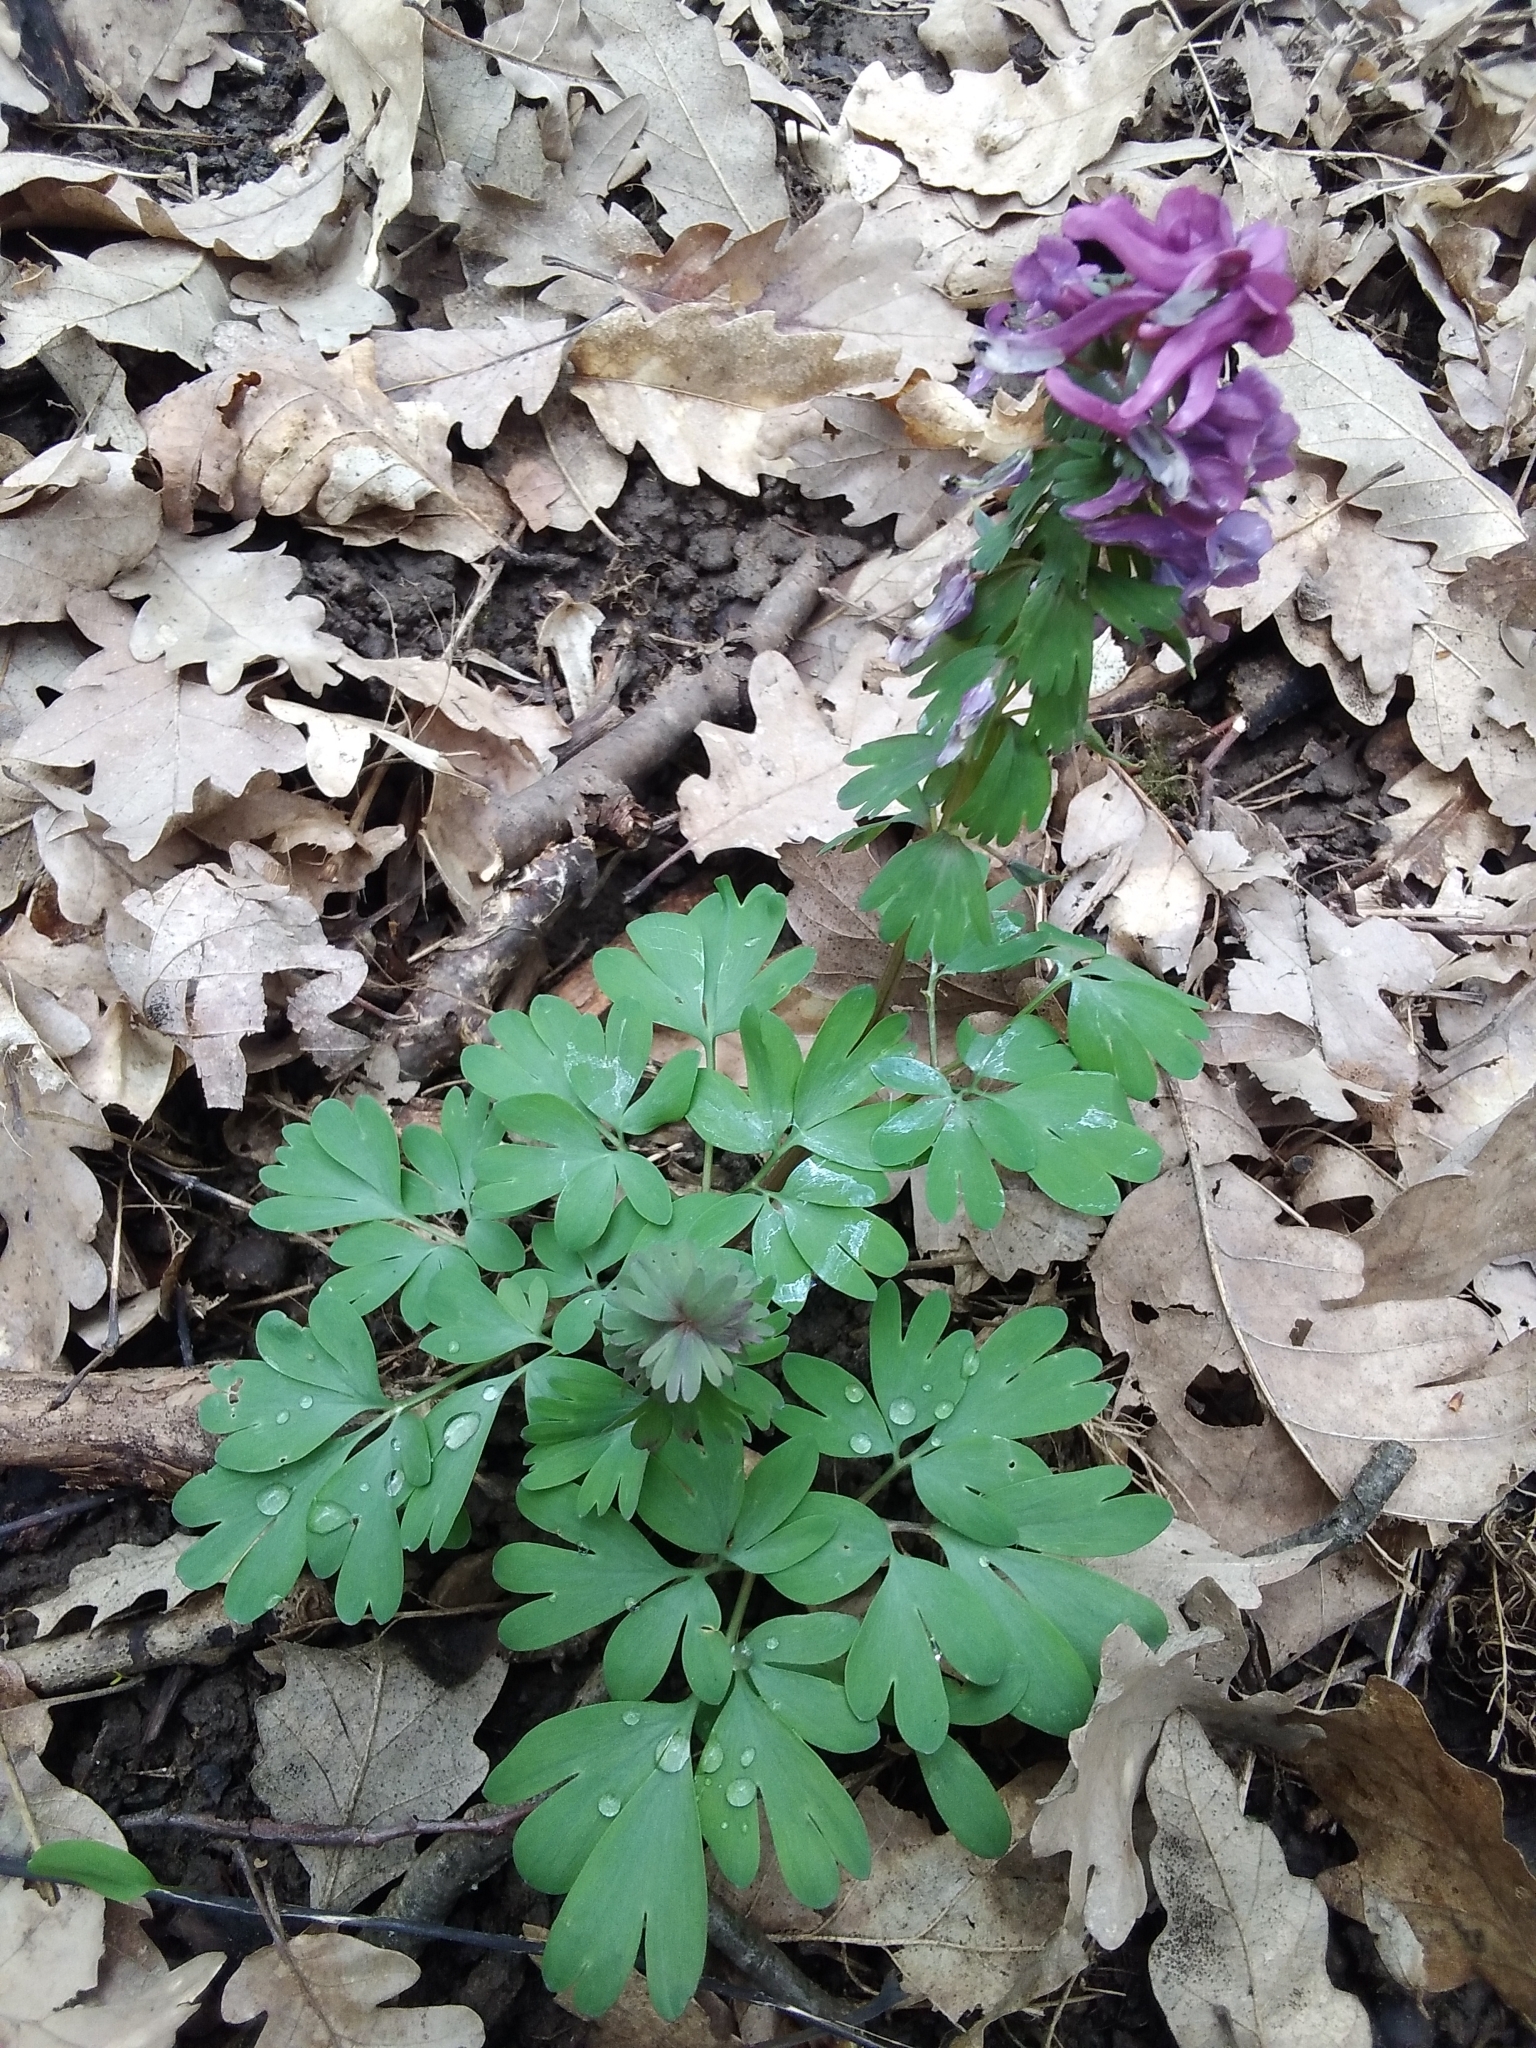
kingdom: Plantae
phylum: Tracheophyta
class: Magnoliopsida
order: Ranunculales
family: Papaveraceae
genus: Corydalis
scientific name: Corydalis solida
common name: Bird-in-a-bush
